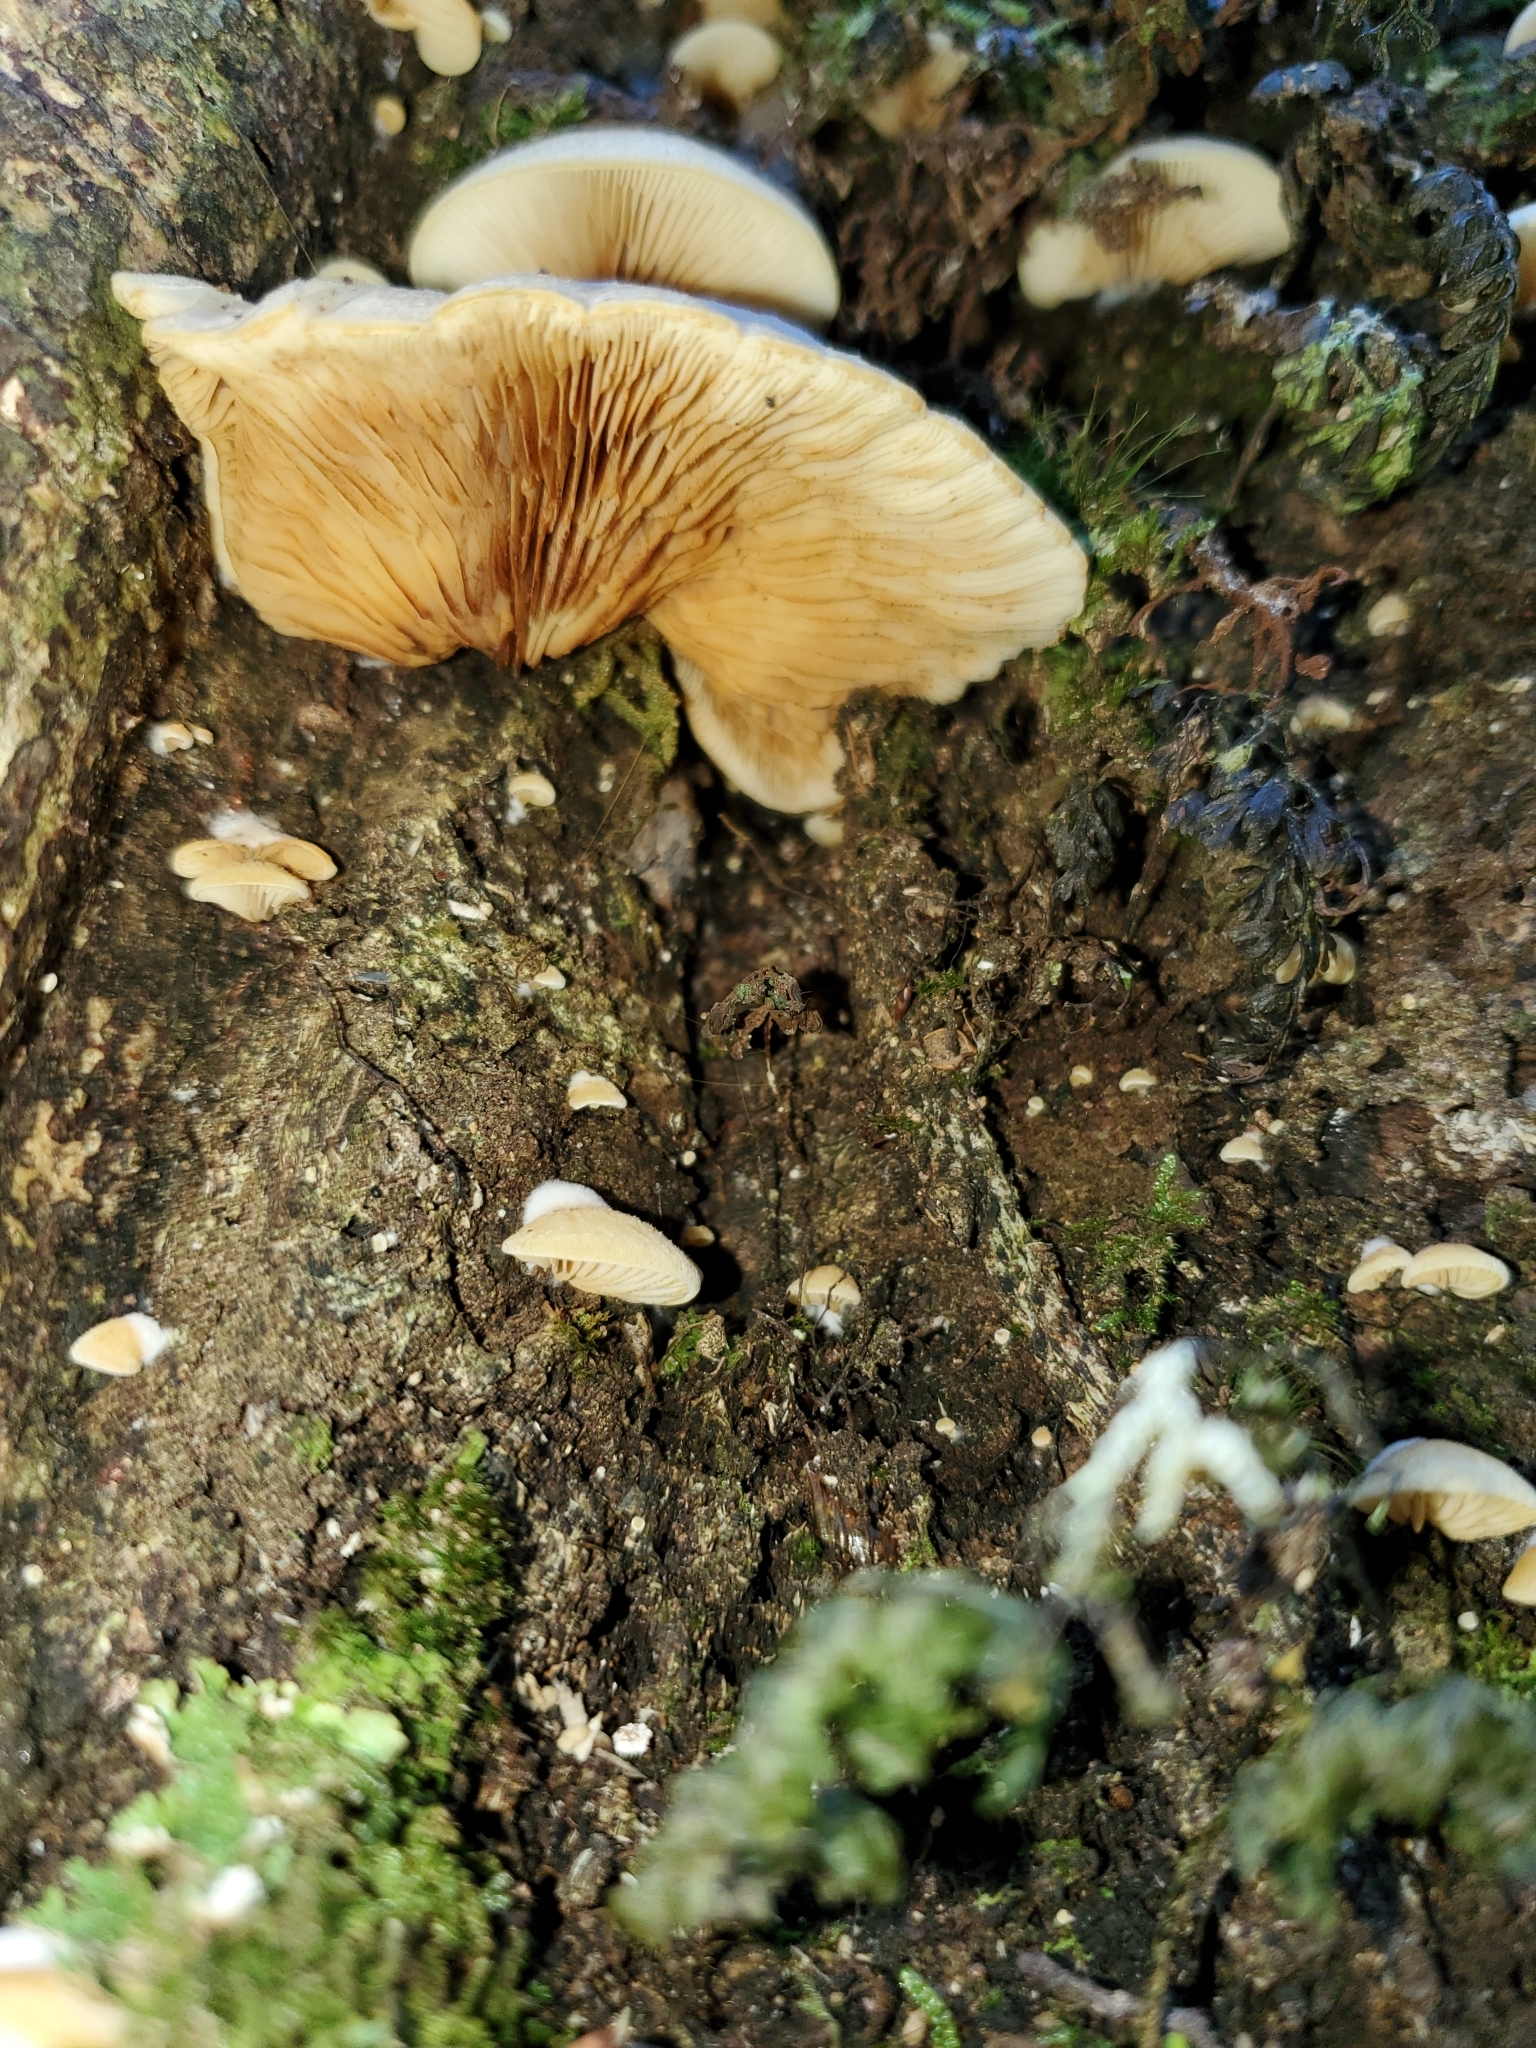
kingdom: Fungi
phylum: Basidiomycota
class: Agaricomycetes
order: Agaricales
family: Crepidotaceae
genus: Crepidotus
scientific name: Crepidotus praecipuus
